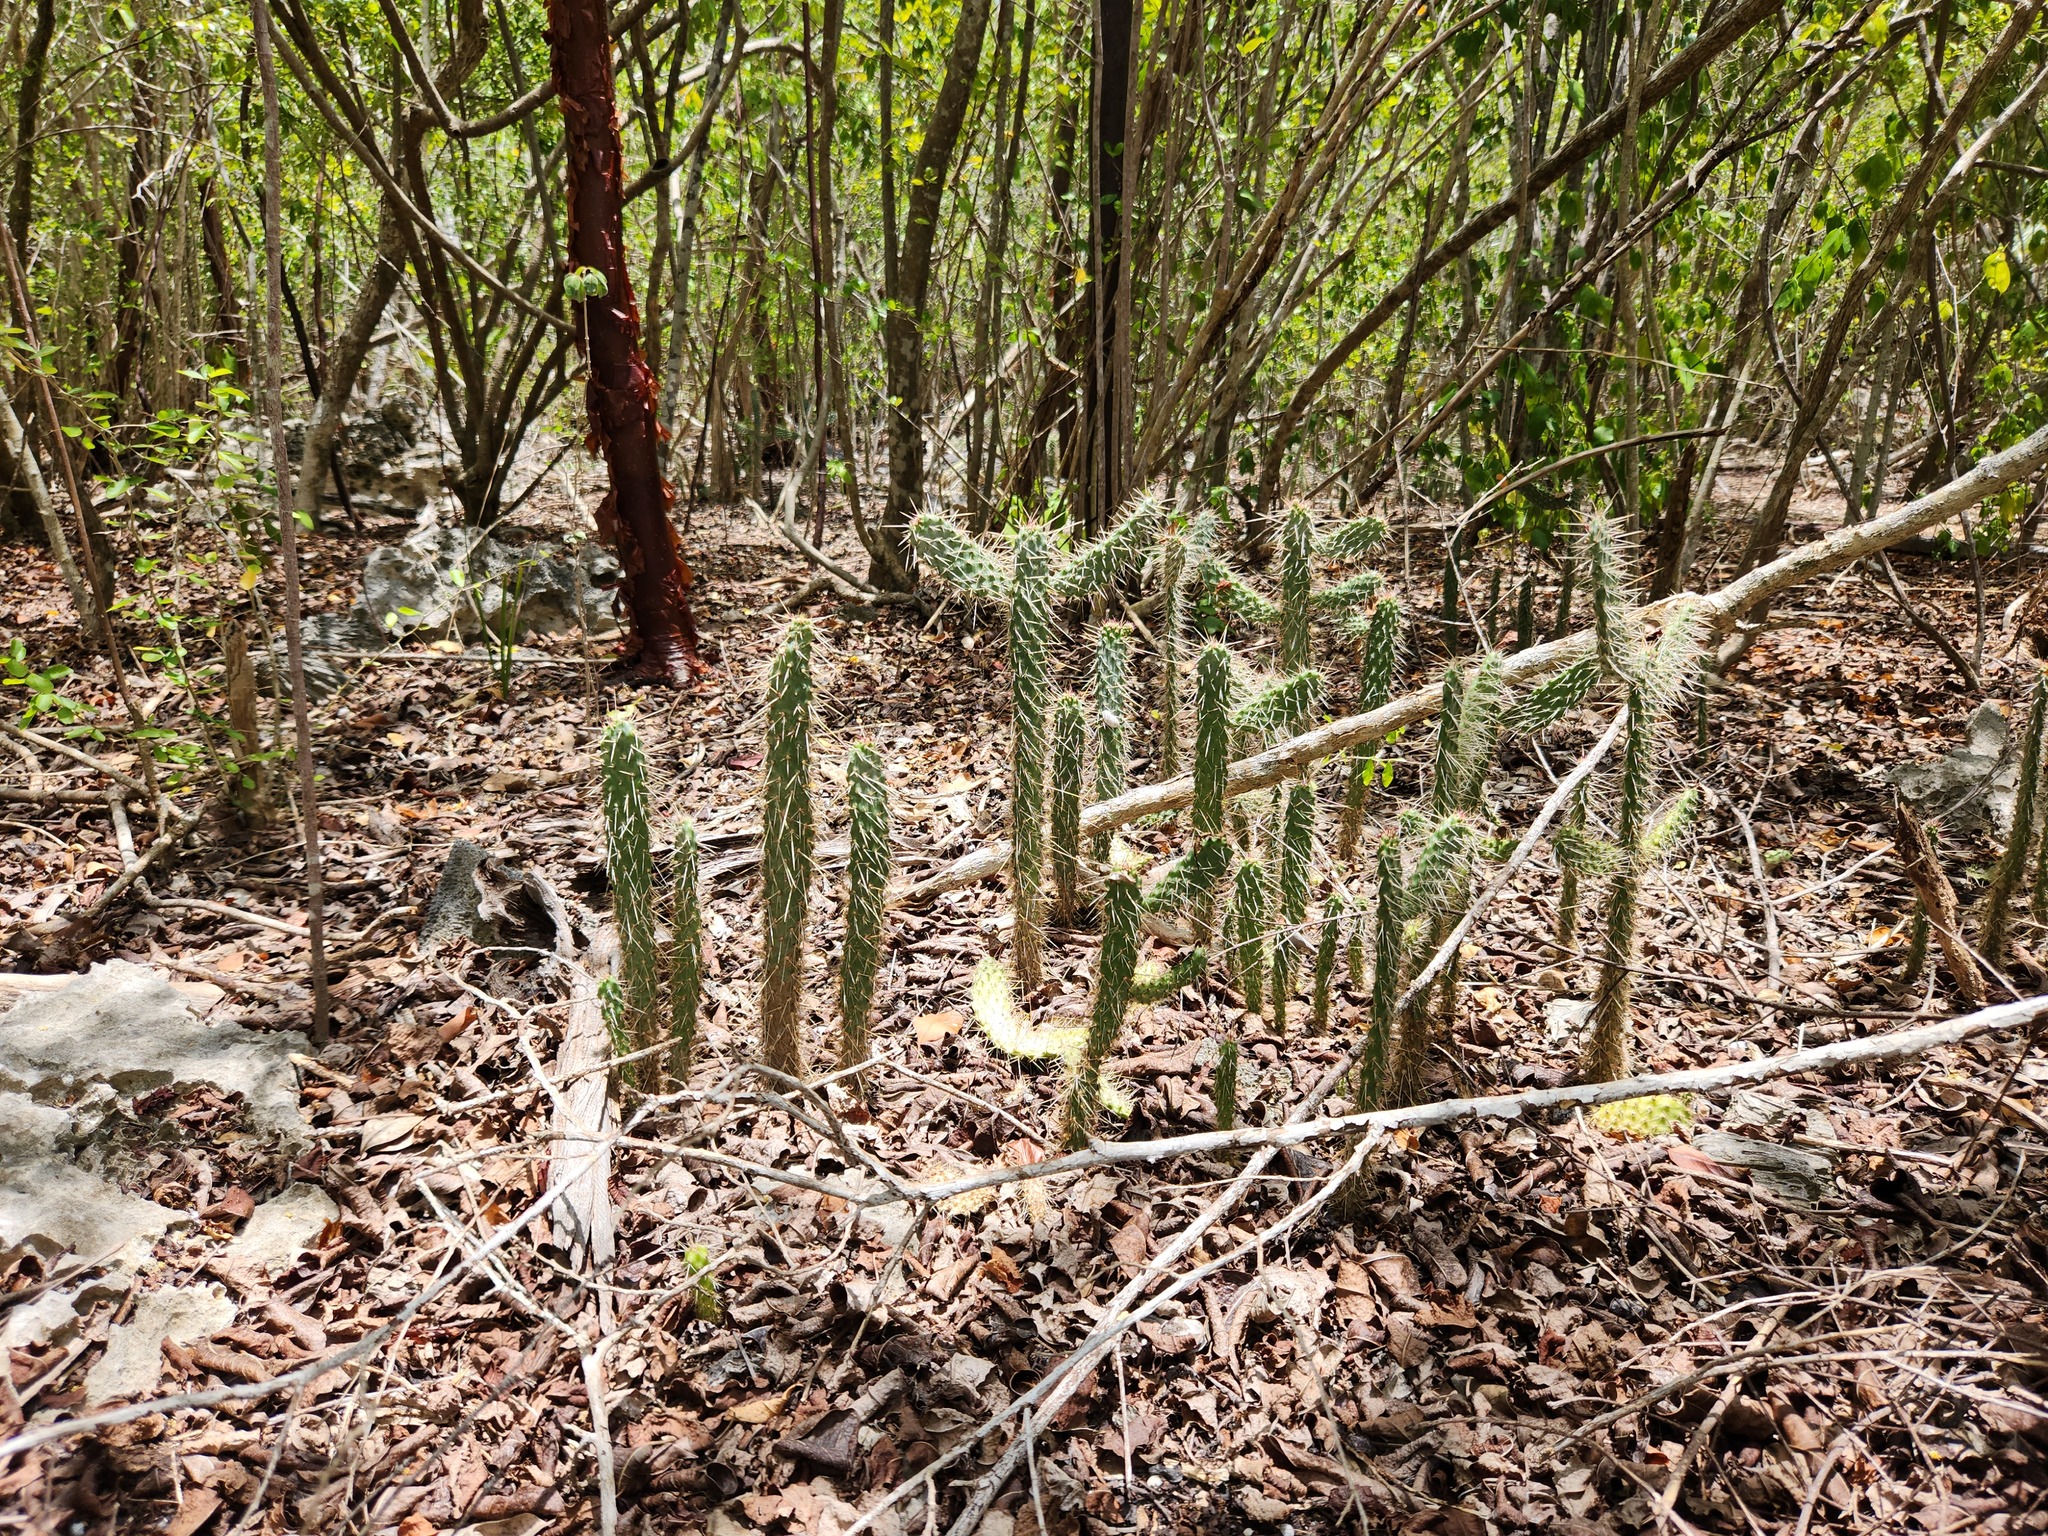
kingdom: Plantae
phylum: Tracheophyta
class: Magnoliopsida
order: Caryophyllales
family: Cactaceae
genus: Consolea
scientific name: Consolea macracantha
